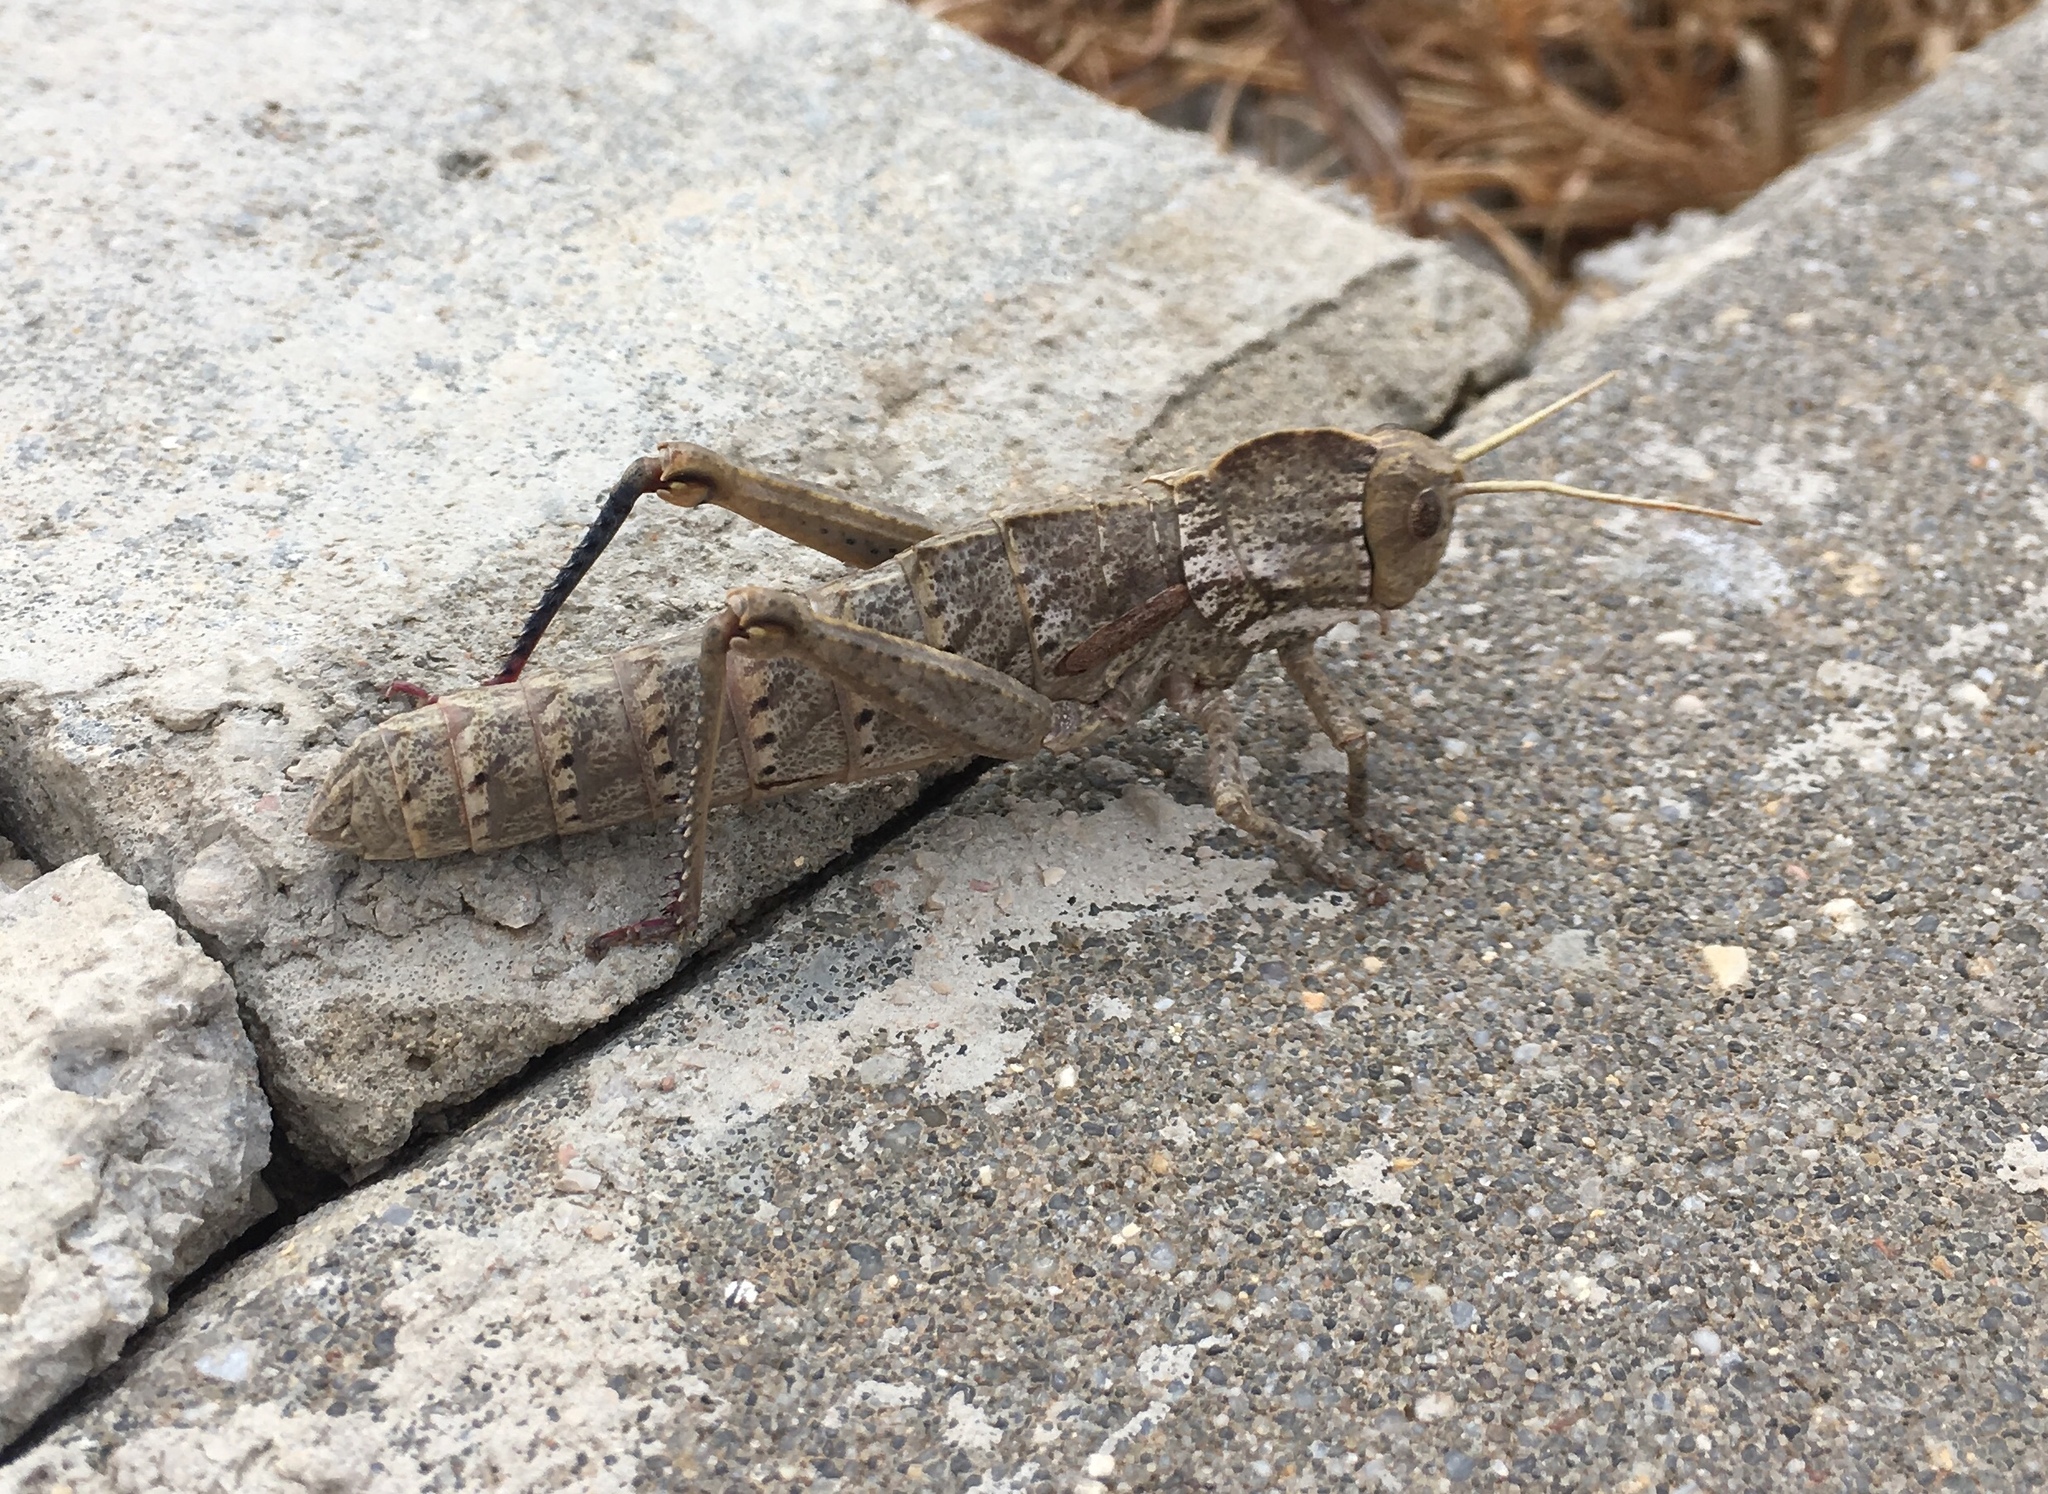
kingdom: Animalia
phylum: Arthropoda
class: Insecta
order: Orthoptera
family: Pamphagidae
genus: Acinipe
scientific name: Acinipe tibialis
